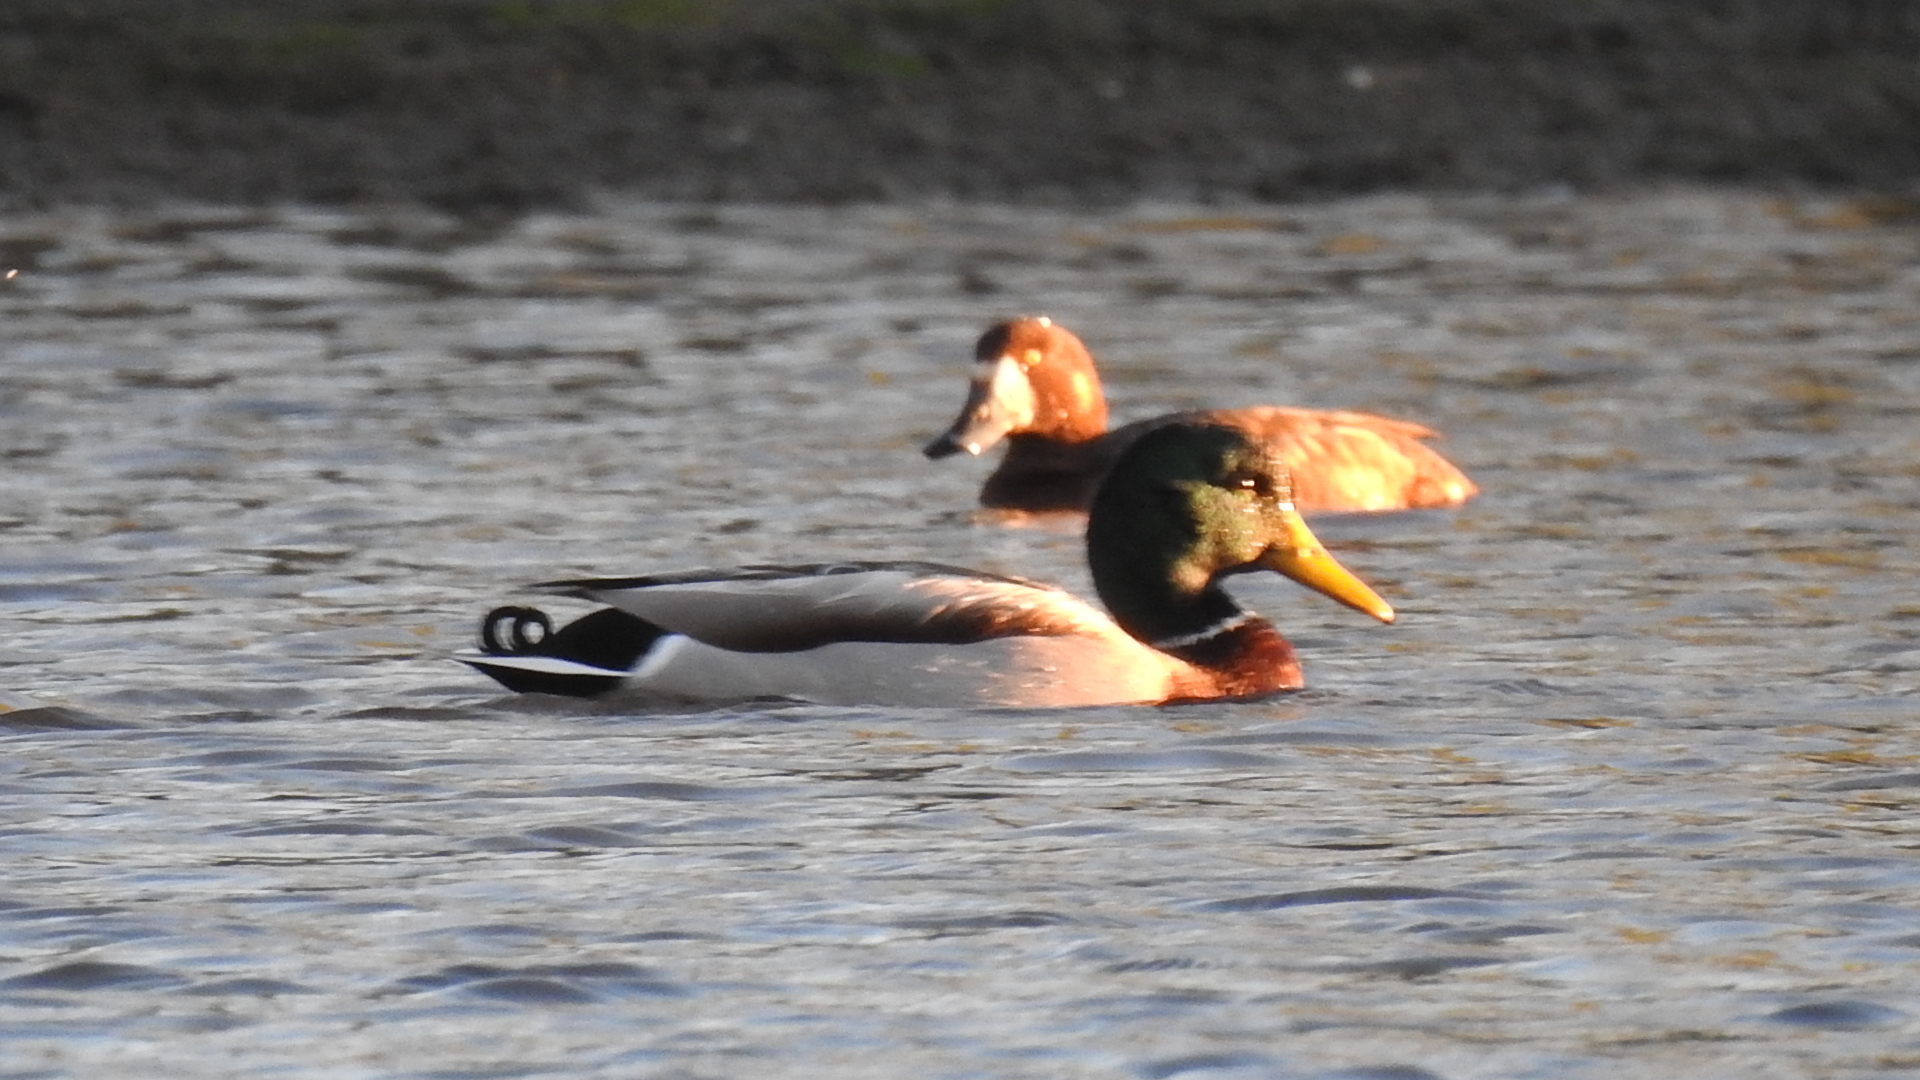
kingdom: Animalia
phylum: Chordata
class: Aves
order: Anseriformes
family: Anatidae
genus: Anas
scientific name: Anas platyrhynchos
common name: Mallard
